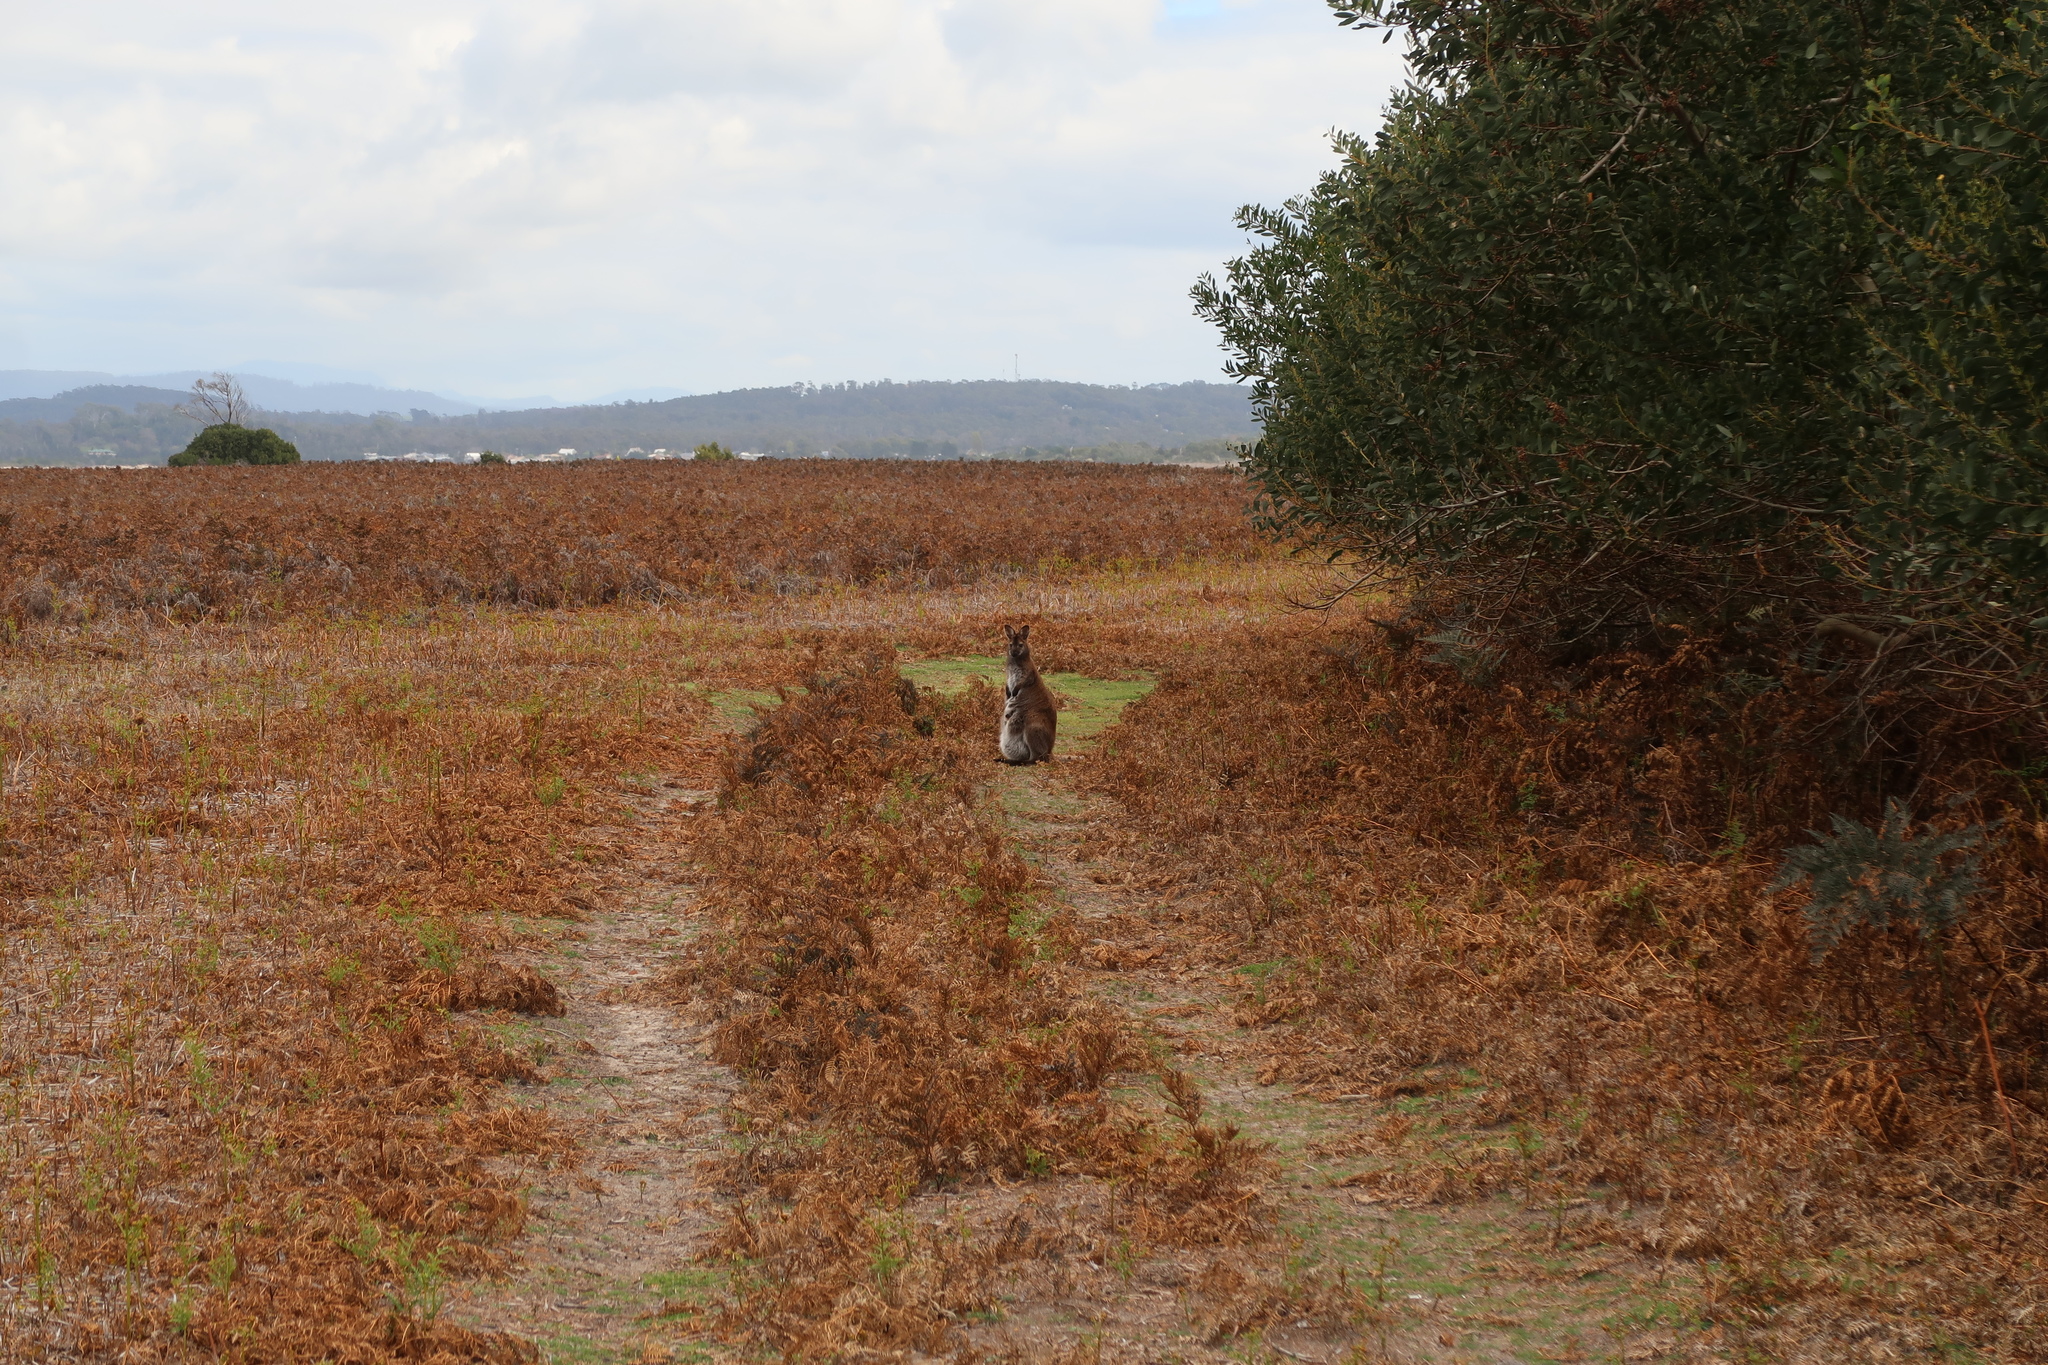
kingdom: Animalia
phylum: Chordata
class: Mammalia
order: Diprotodontia
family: Macropodidae
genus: Notamacropus
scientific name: Notamacropus rufogriseus
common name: Red-necked wallaby
